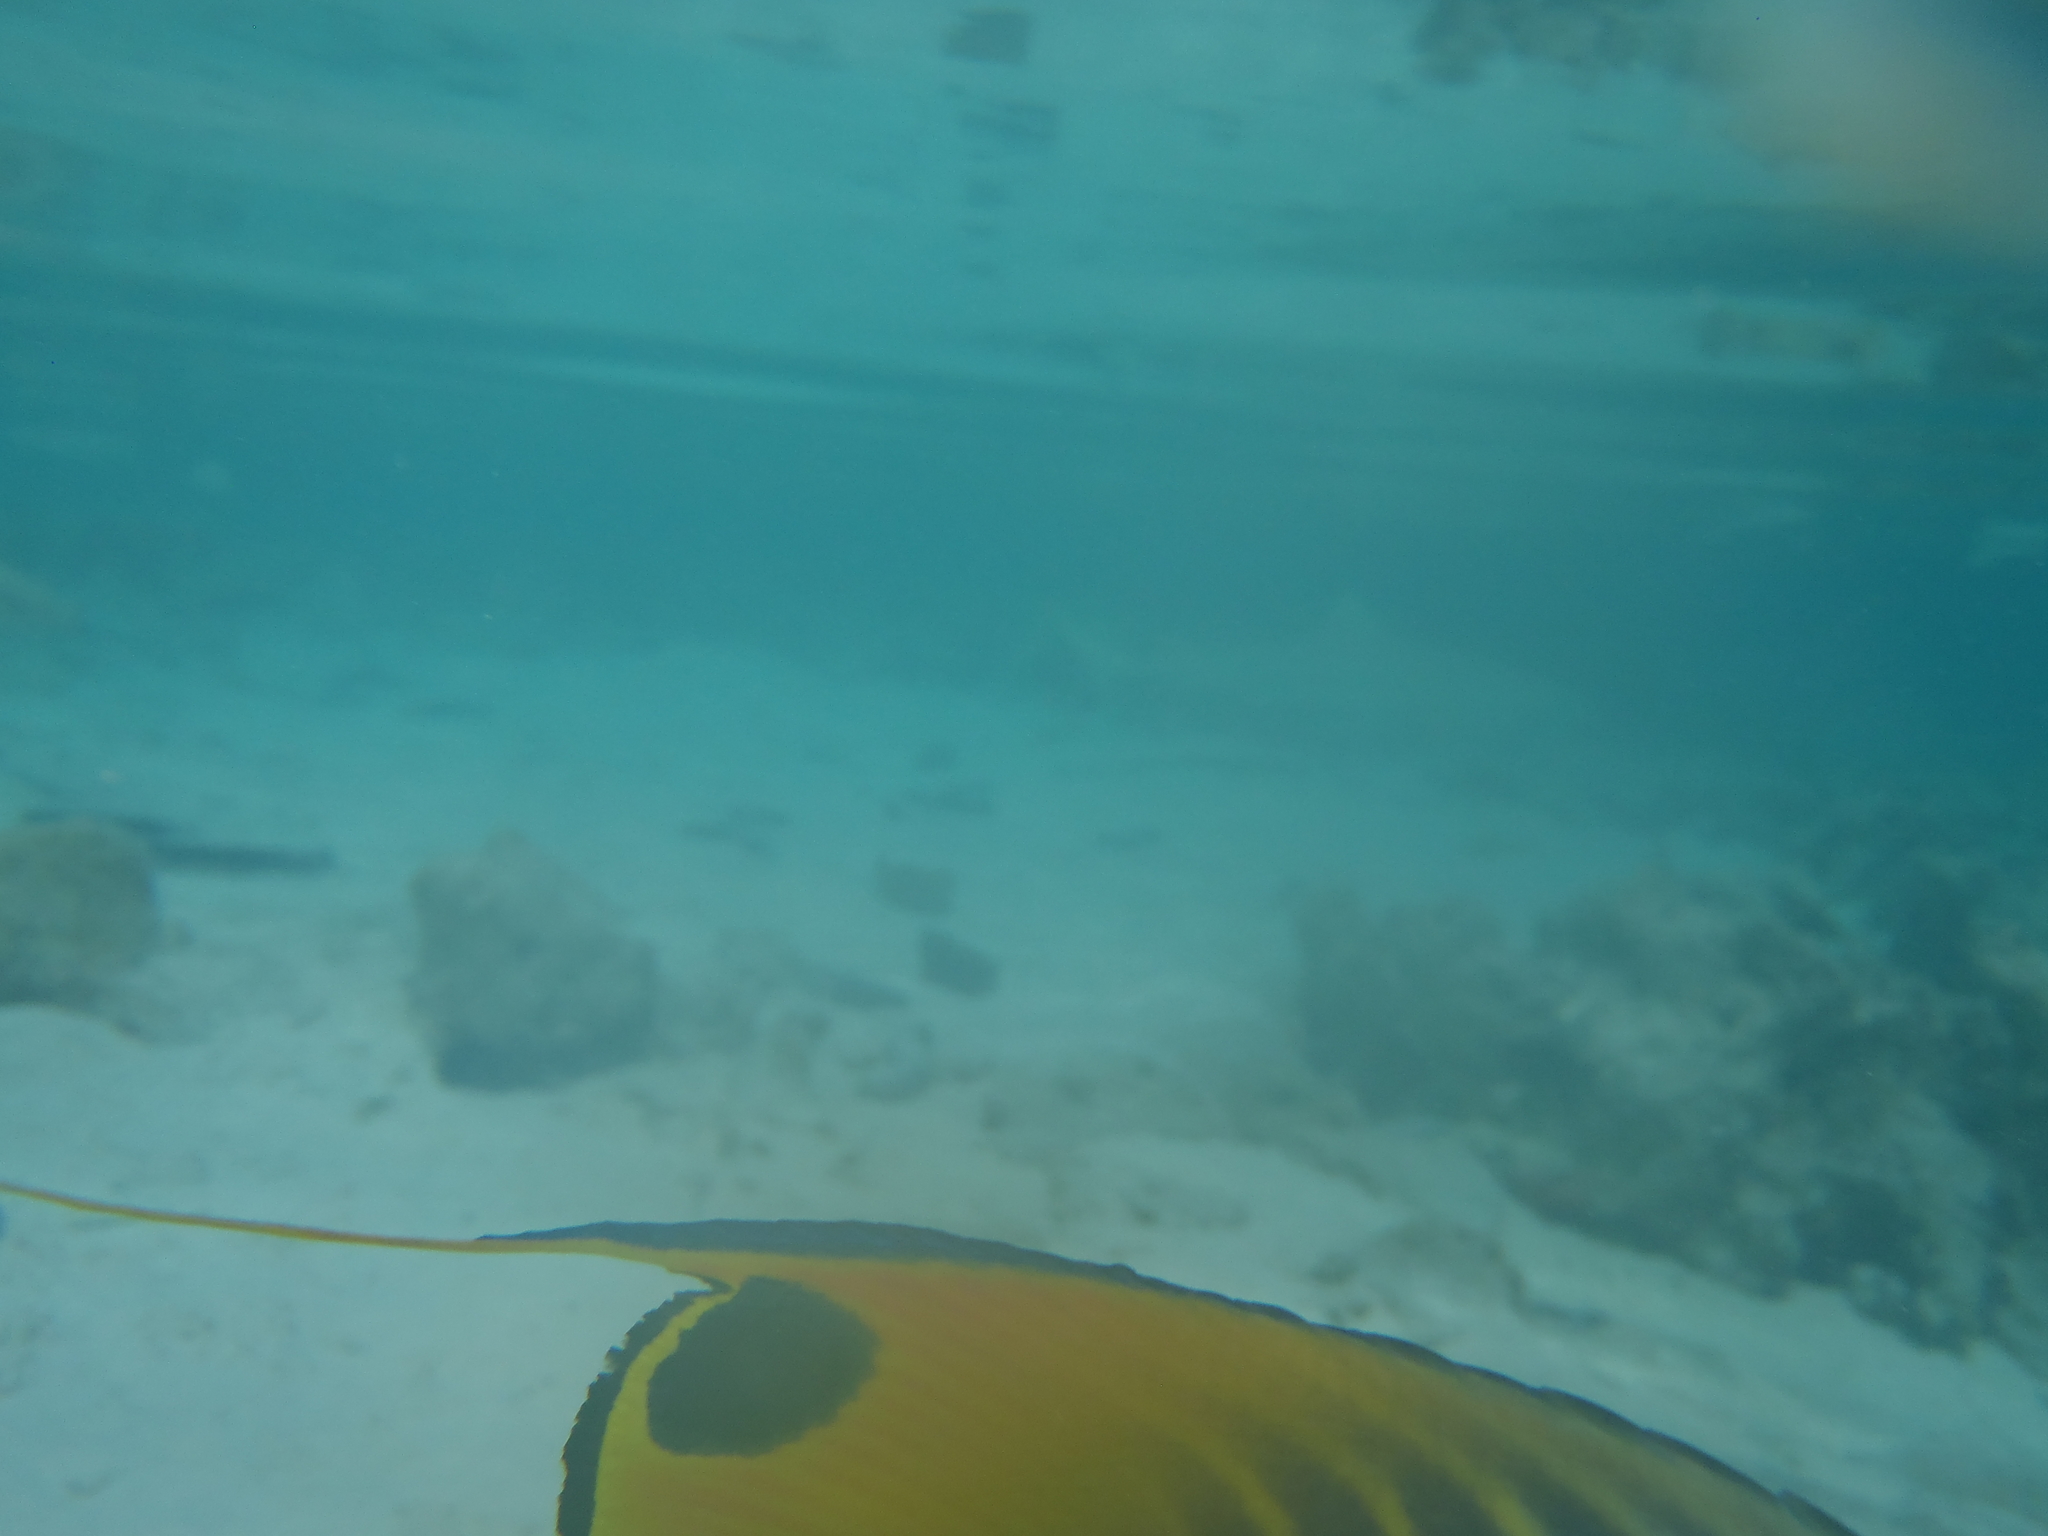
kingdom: Animalia
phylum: Chordata
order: Perciformes
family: Chaetodontidae
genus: Chaetodon
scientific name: Chaetodon auriga
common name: Threadfin butterflyfish
